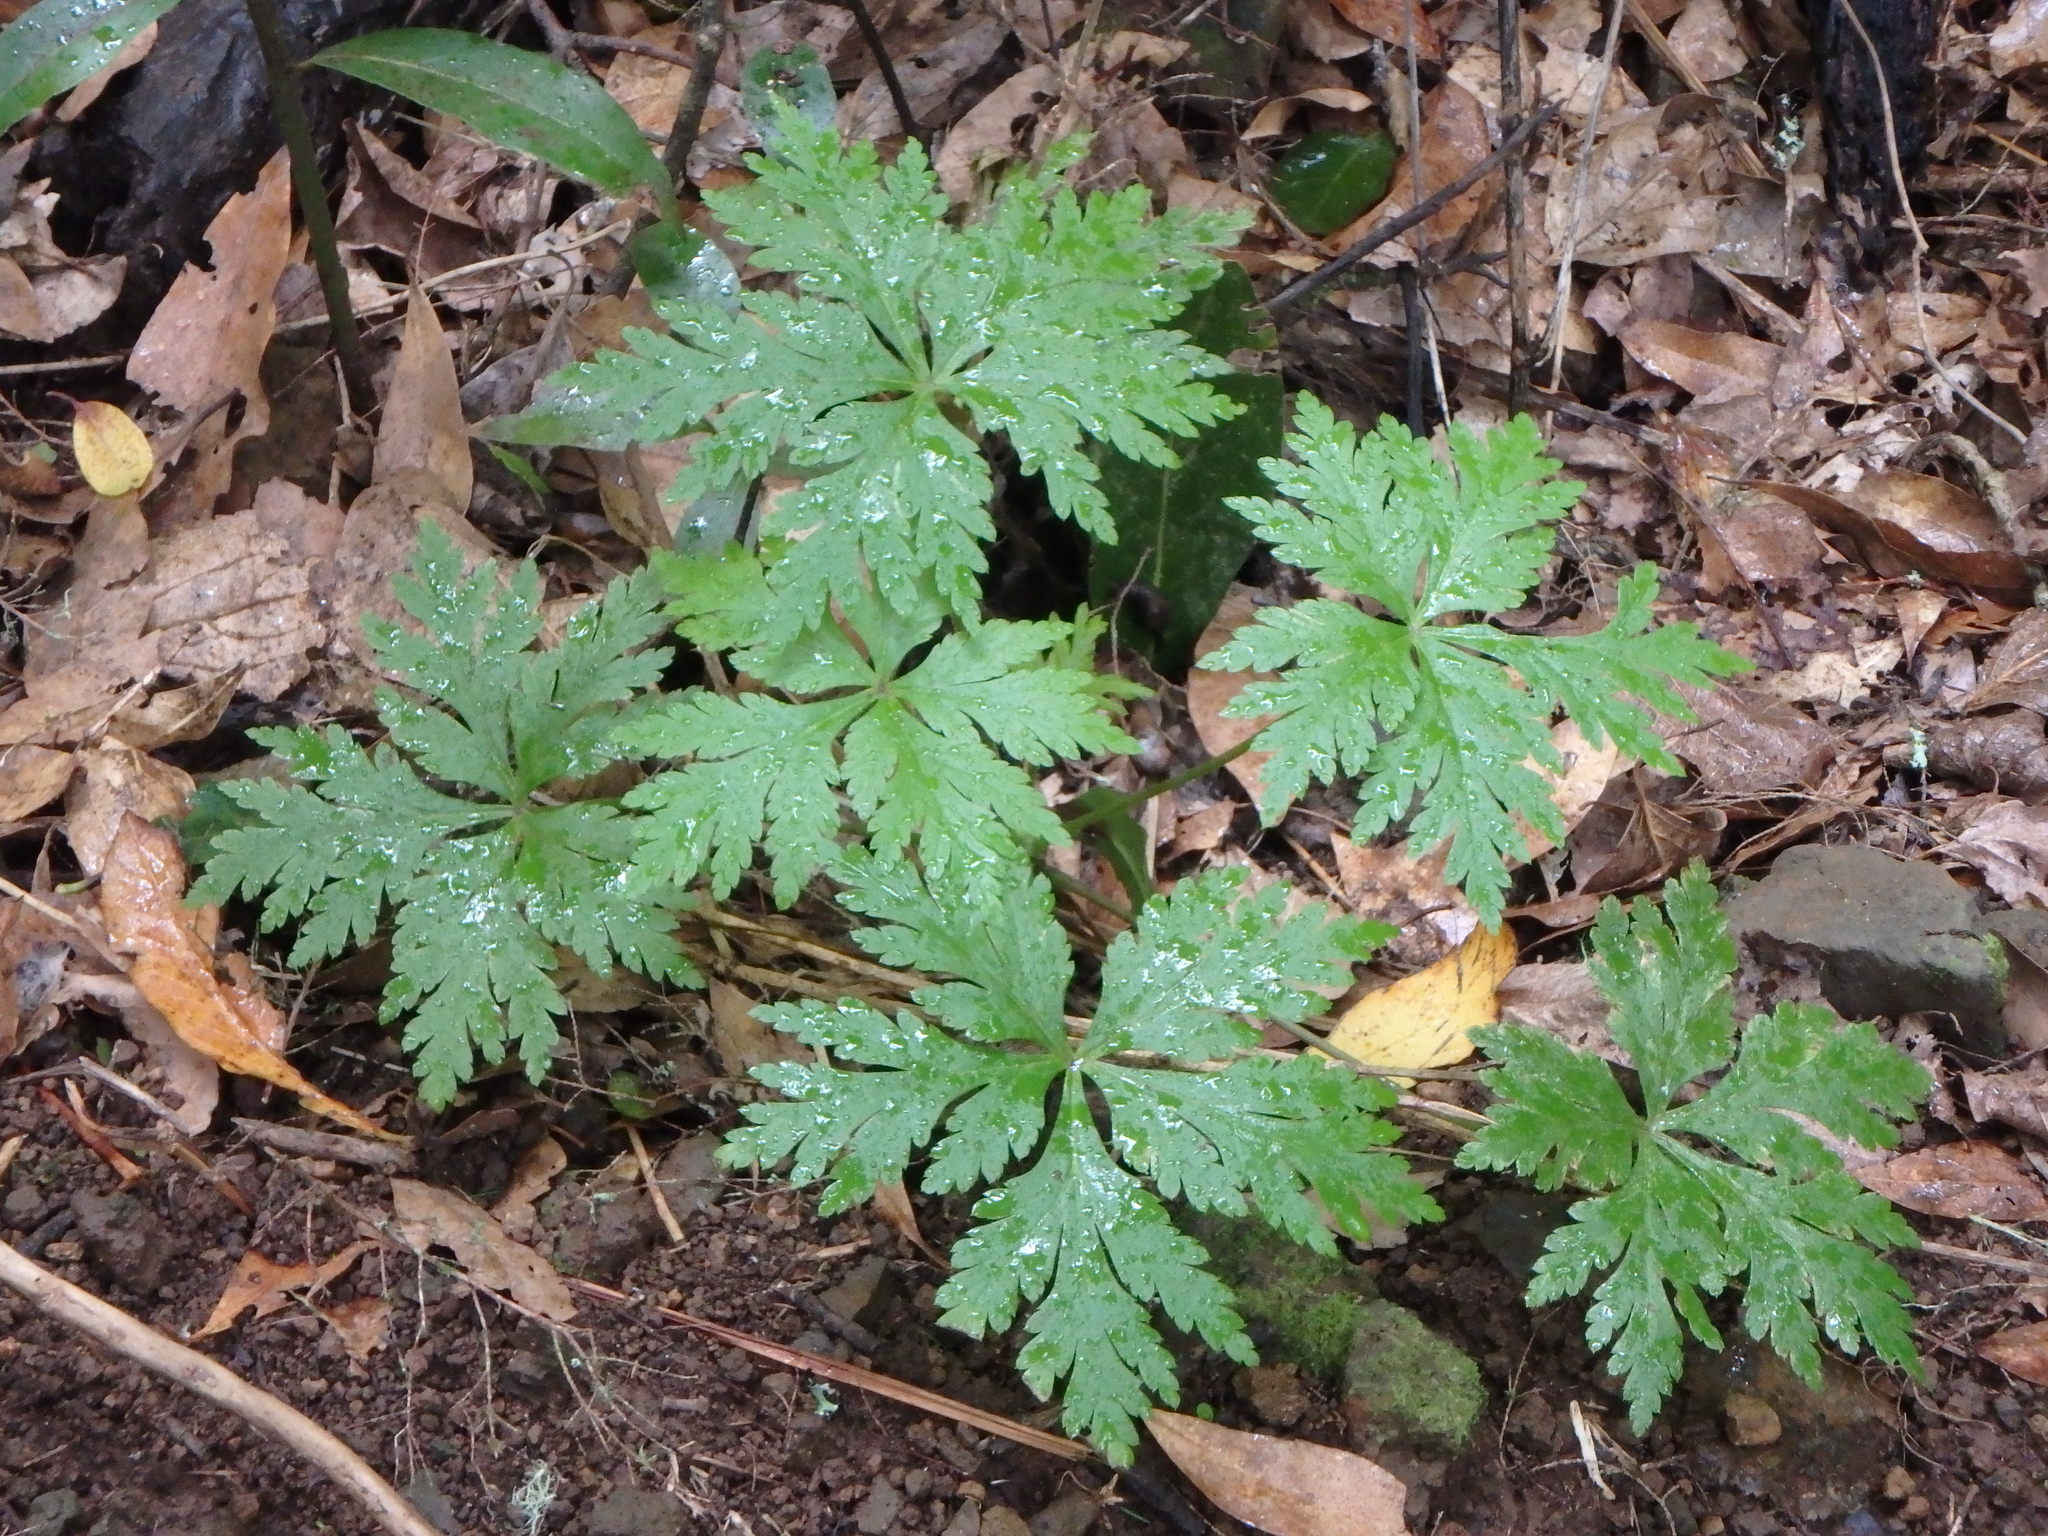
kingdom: Plantae
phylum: Tracheophyta
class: Magnoliopsida
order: Geraniales
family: Geraniaceae
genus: Geranium
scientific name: Geranium reuteri
